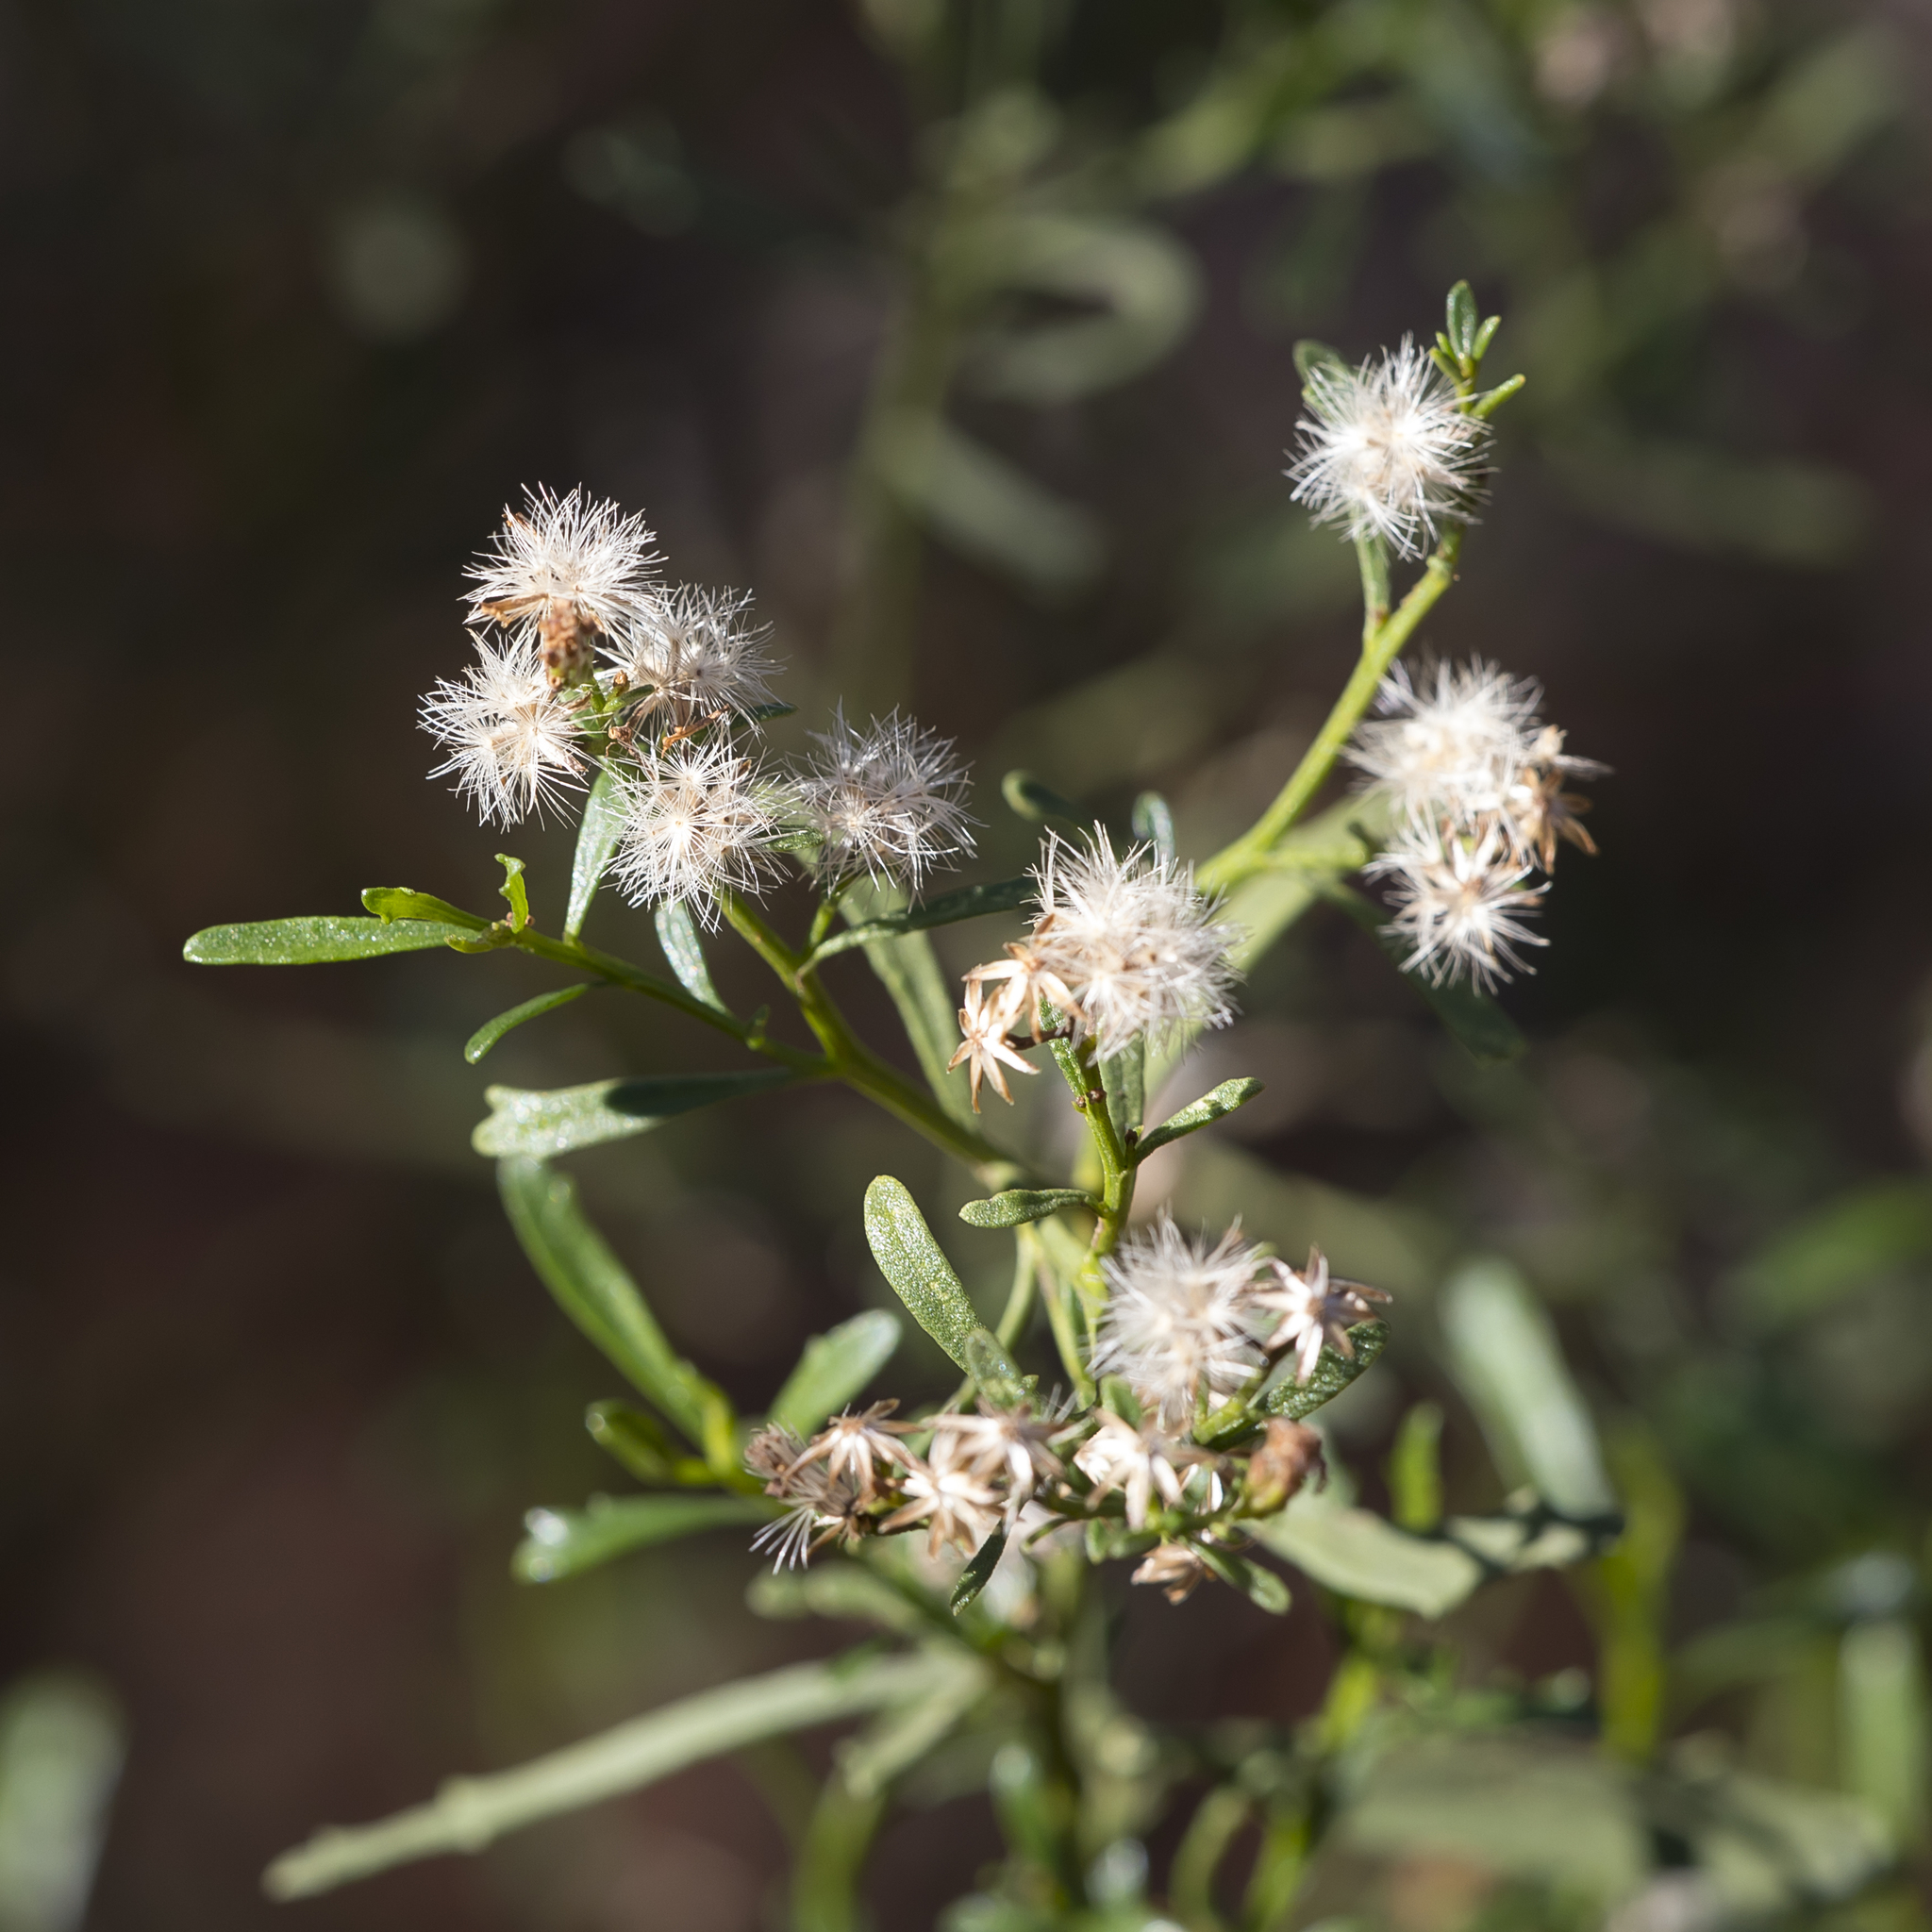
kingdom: Plantae
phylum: Tracheophyta
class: Magnoliopsida
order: Asterales
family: Asteraceae
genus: Olearia
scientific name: Olearia decurrens
